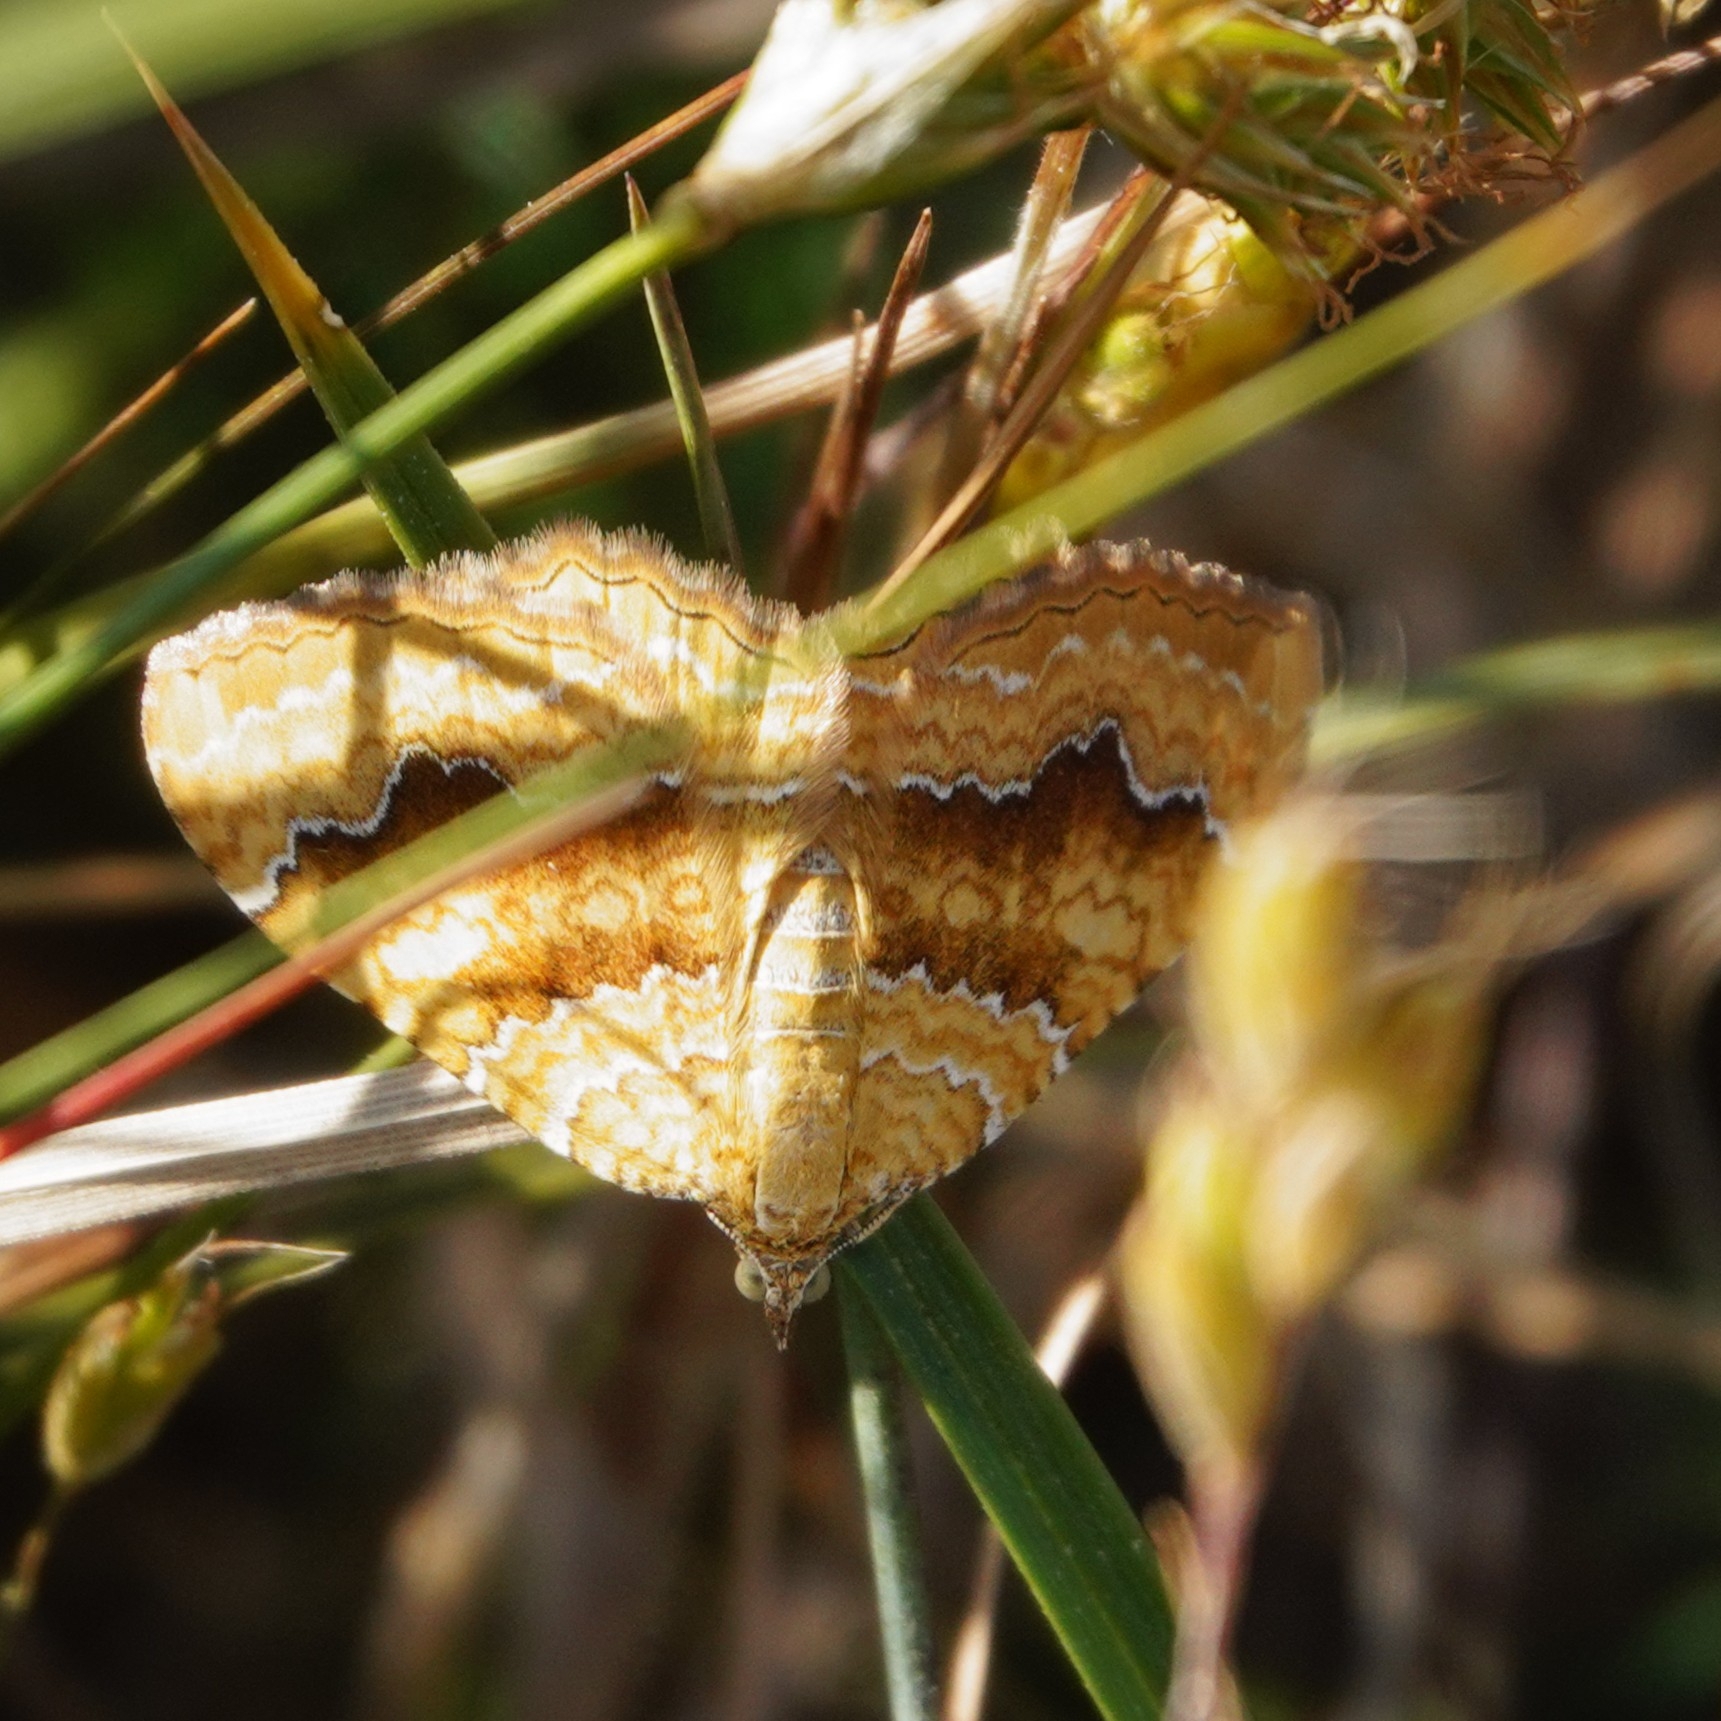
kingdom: Animalia
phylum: Arthropoda
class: Insecta
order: Lepidoptera
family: Geometridae
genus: Camptogramma
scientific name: Camptogramma bilineata
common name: Yellow shell
